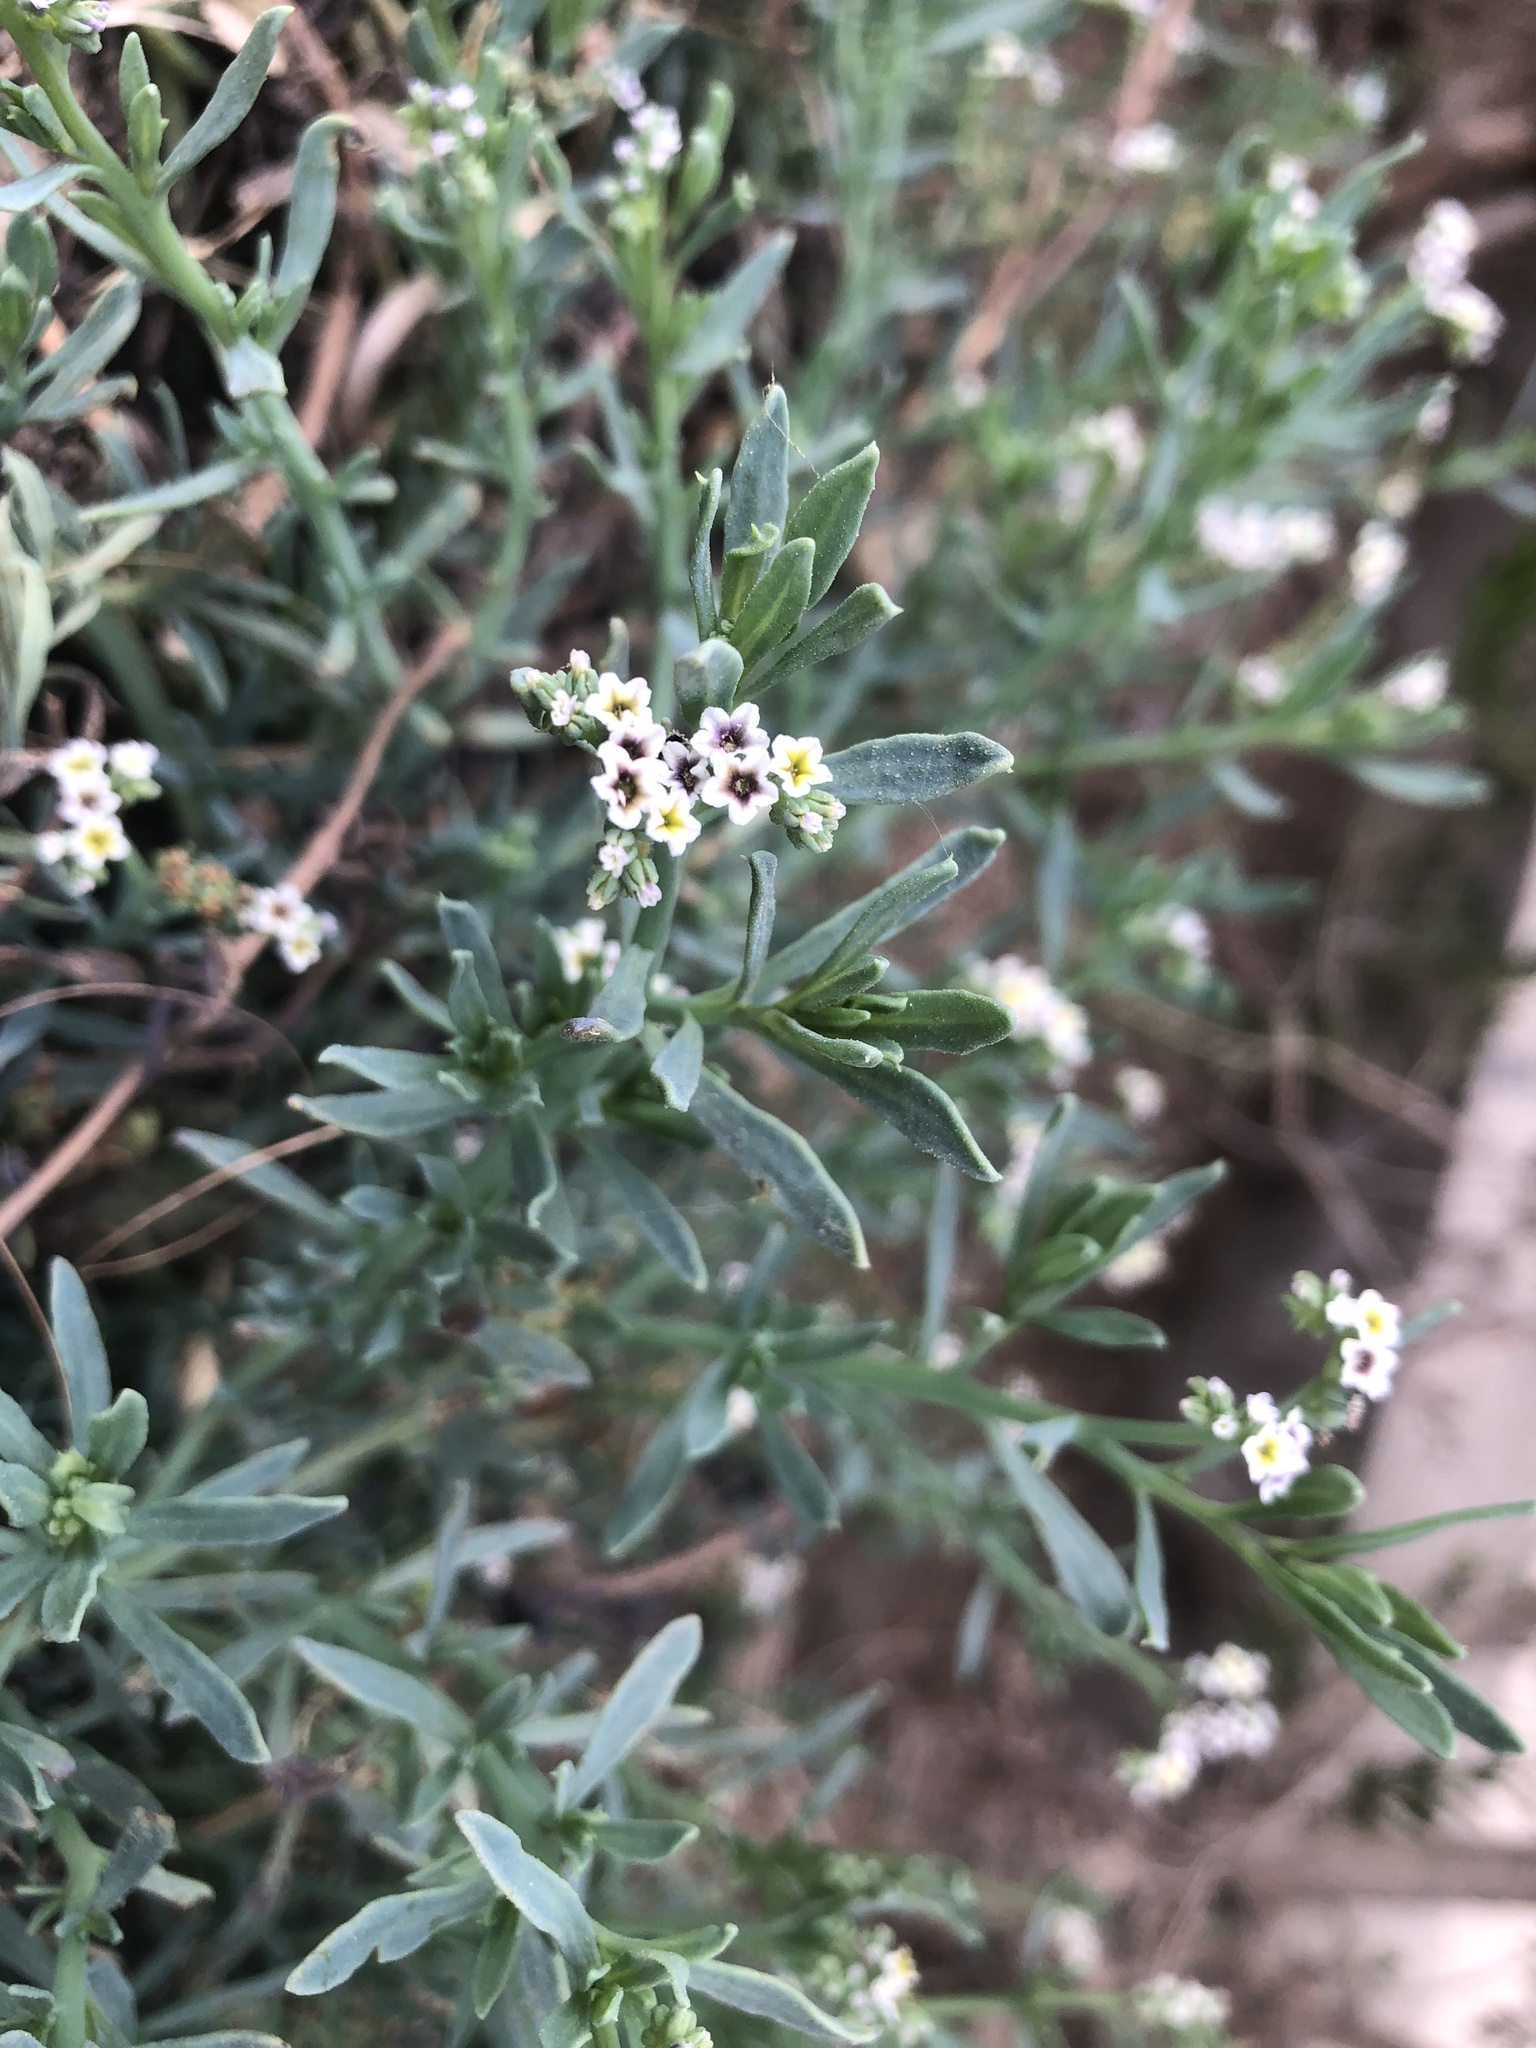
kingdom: Plantae
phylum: Tracheophyta
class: Magnoliopsida
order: Boraginales
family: Heliotropiaceae
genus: Heliotropium
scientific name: Heliotropium curassavicum
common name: Seaside heliotrope
